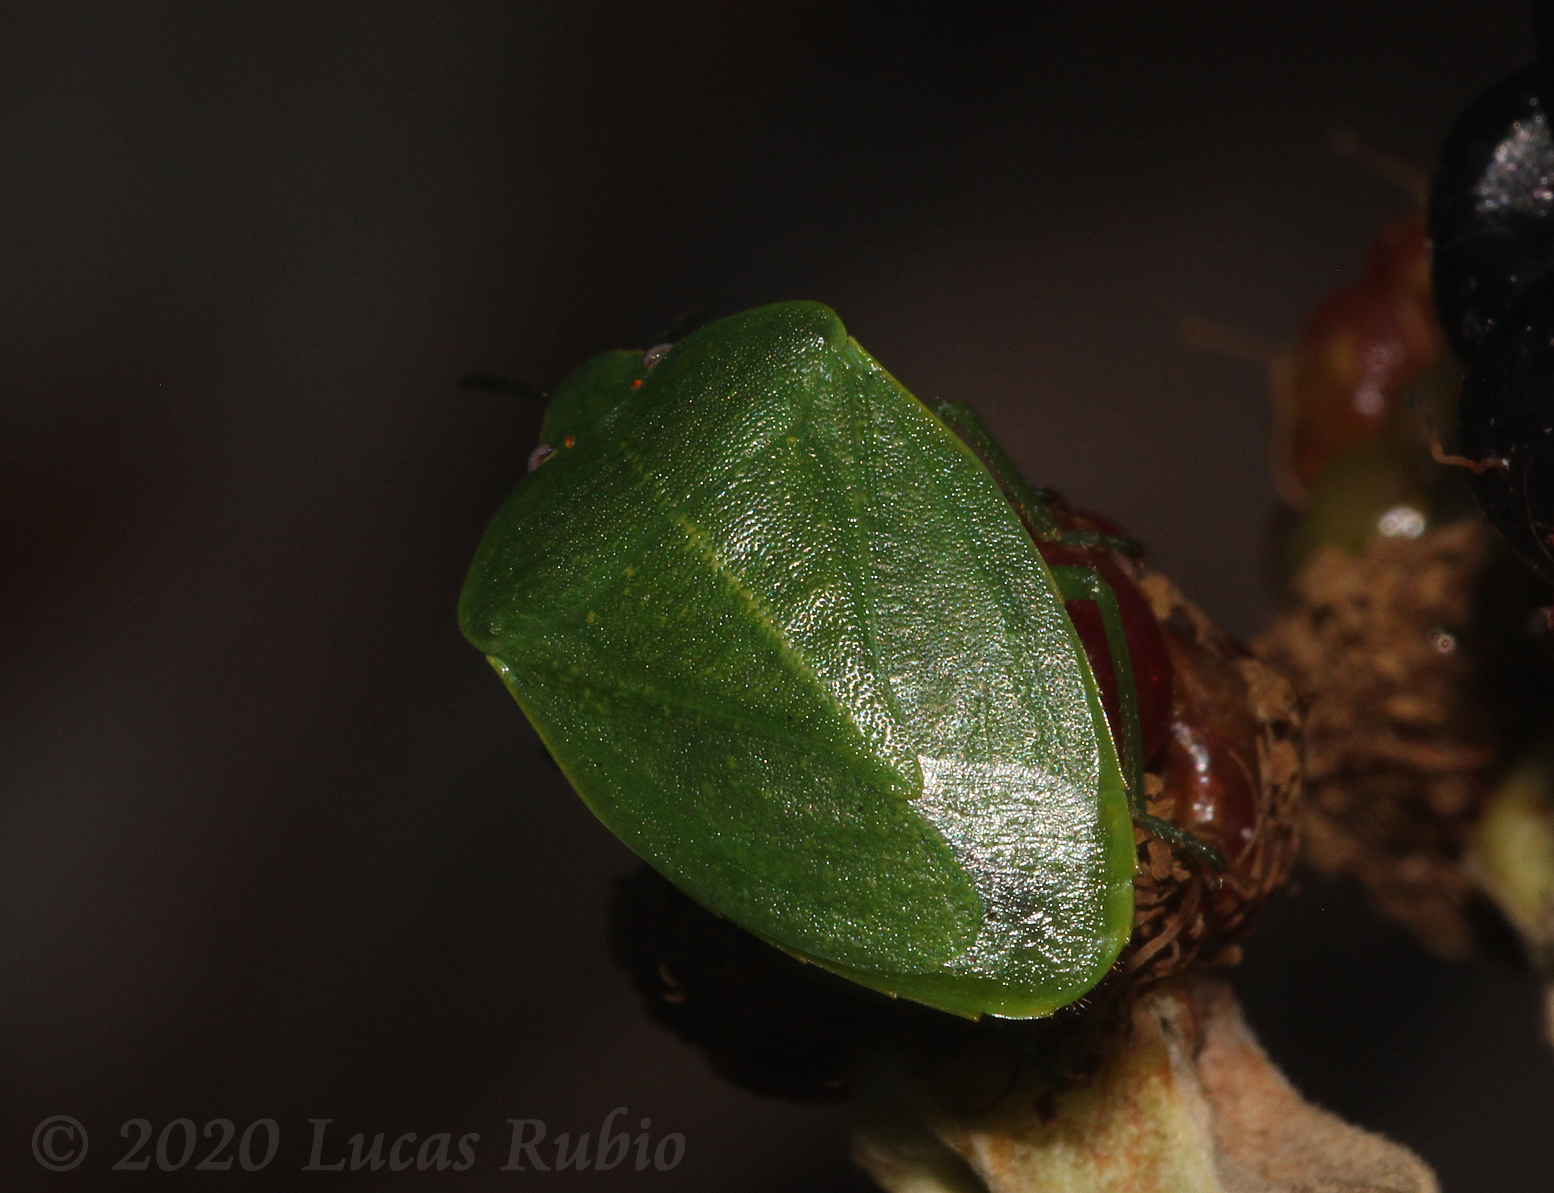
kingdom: Animalia
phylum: Arthropoda
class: Insecta
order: Hemiptera
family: Pentatomidae
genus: Chinavia
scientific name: Chinavia
